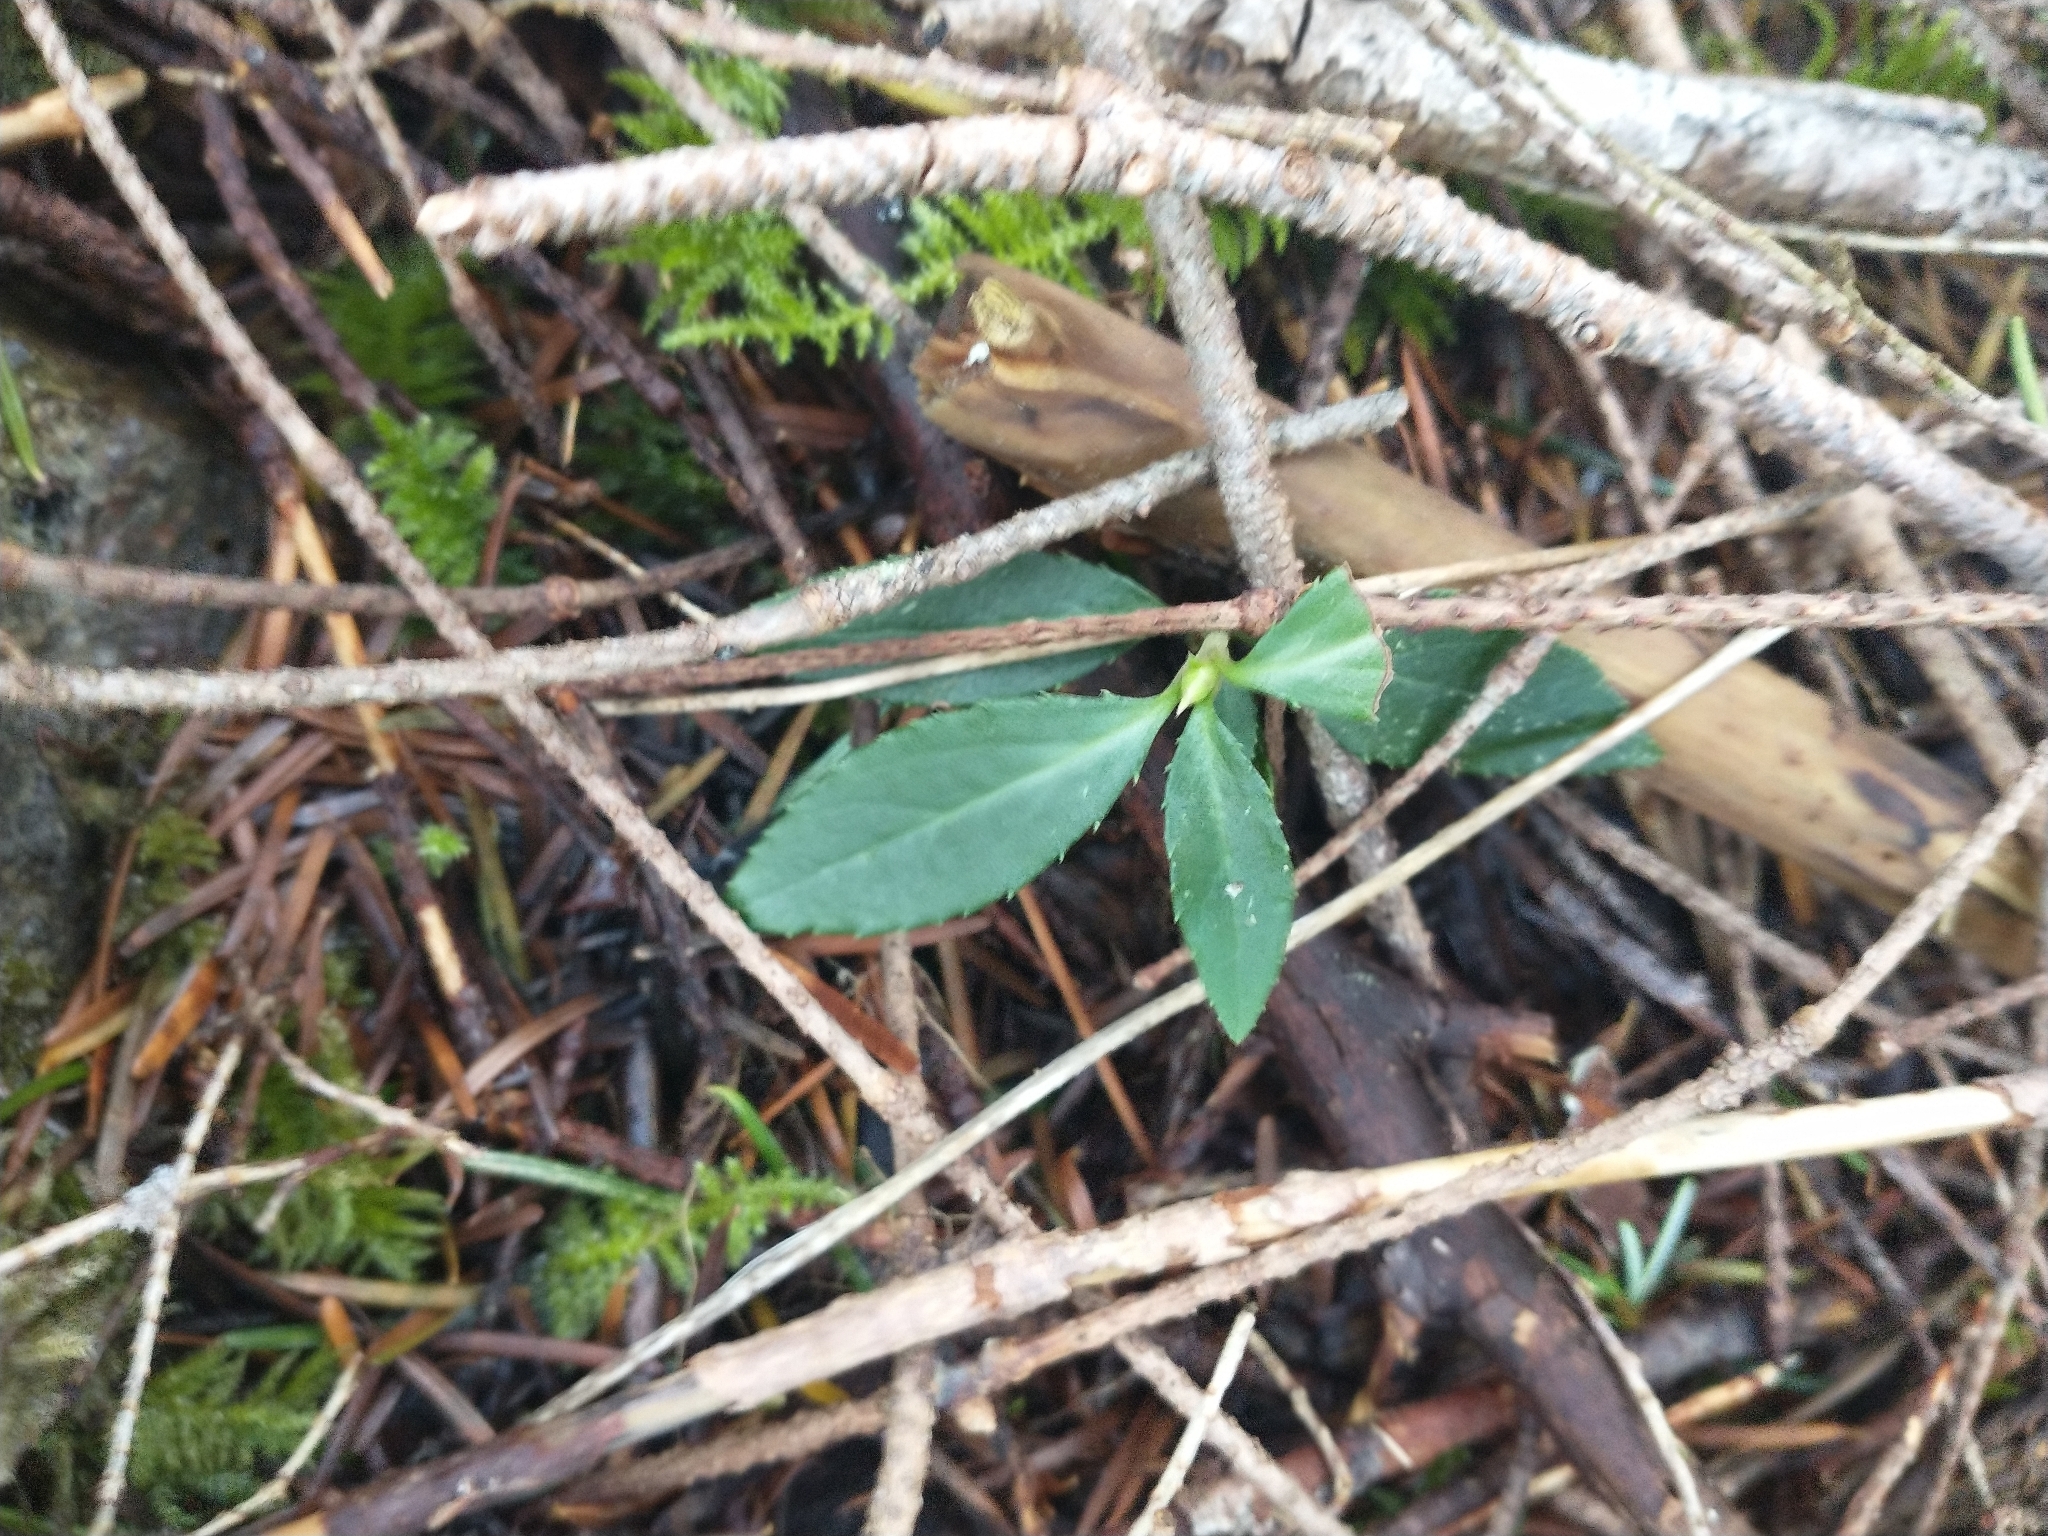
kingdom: Plantae
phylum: Tracheophyta
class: Magnoliopsida
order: Ericales
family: Ericaceae
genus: Chimaphila
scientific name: Chimaphila menziesii
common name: Menzies' pipsissewa
